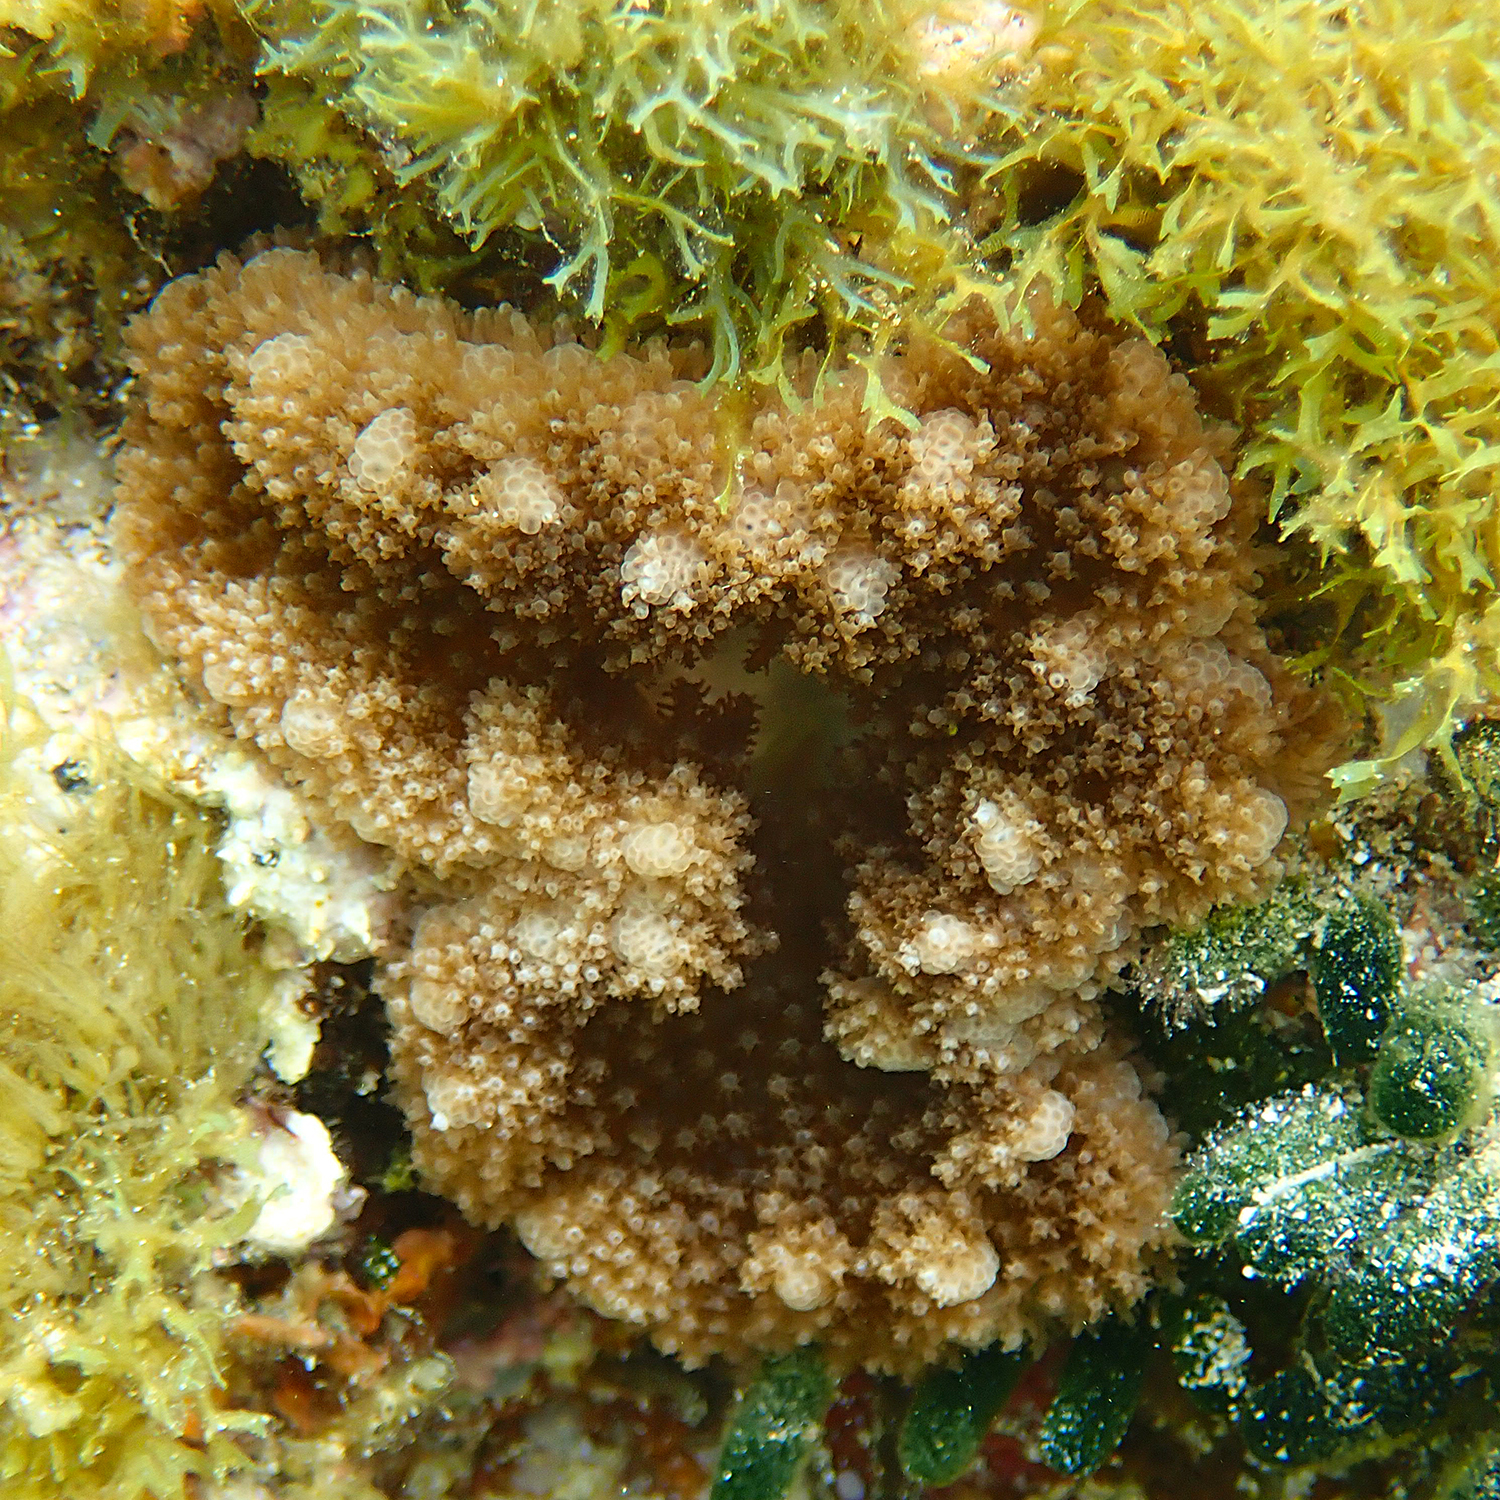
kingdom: Animalia
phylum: Cnidaria
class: Anthozoa
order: Actiniaria
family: Thalassianthidae
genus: Heterodactyla
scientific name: Heterodactyla hemprichii
